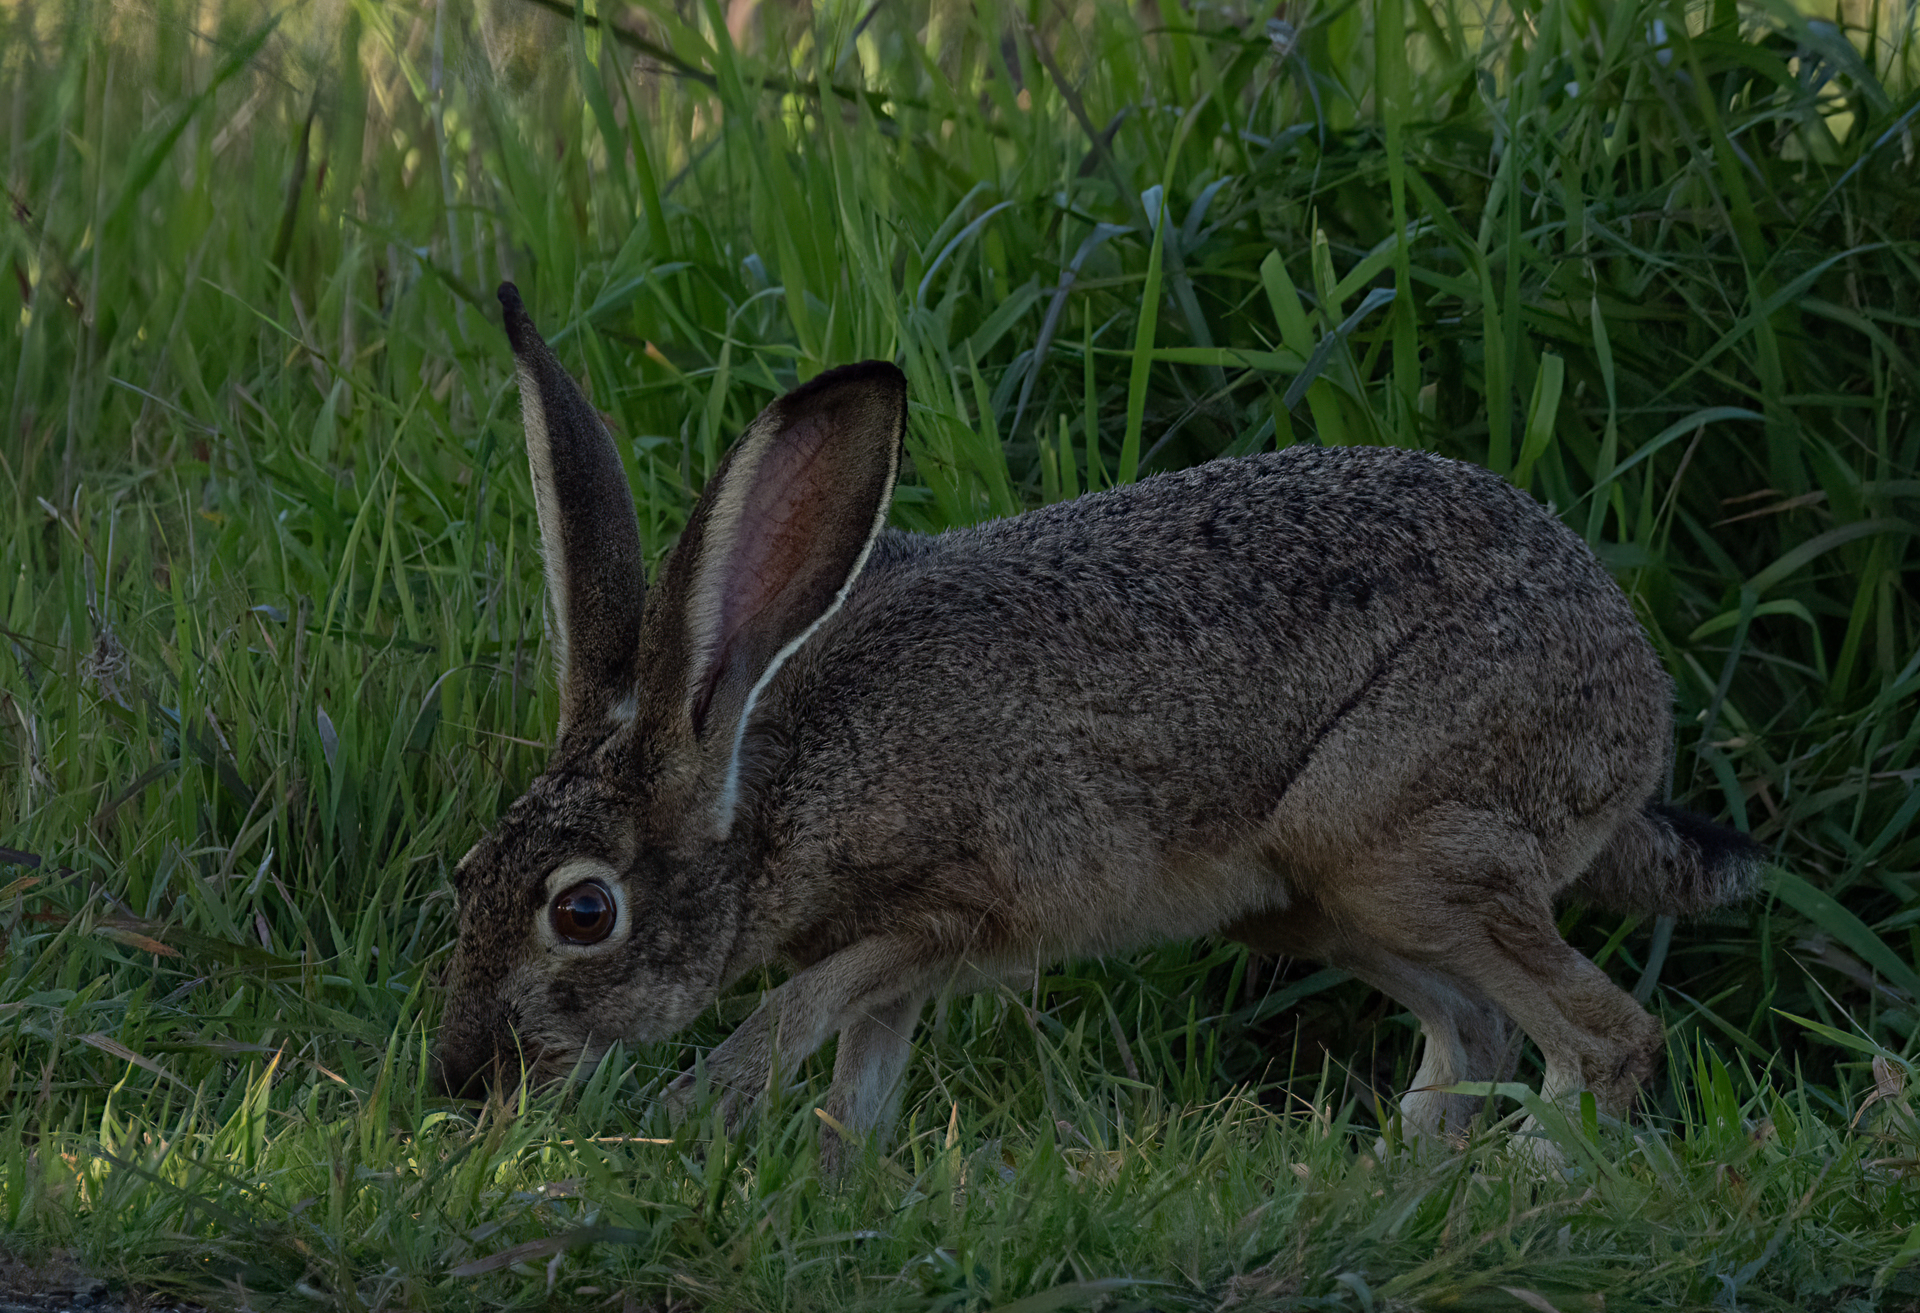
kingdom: Animalia
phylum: Chordata
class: Mammalia
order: Lagomorpha
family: Leporidae
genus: Lepus
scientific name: Lepus californicus
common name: Black-tailed jackrabbit
